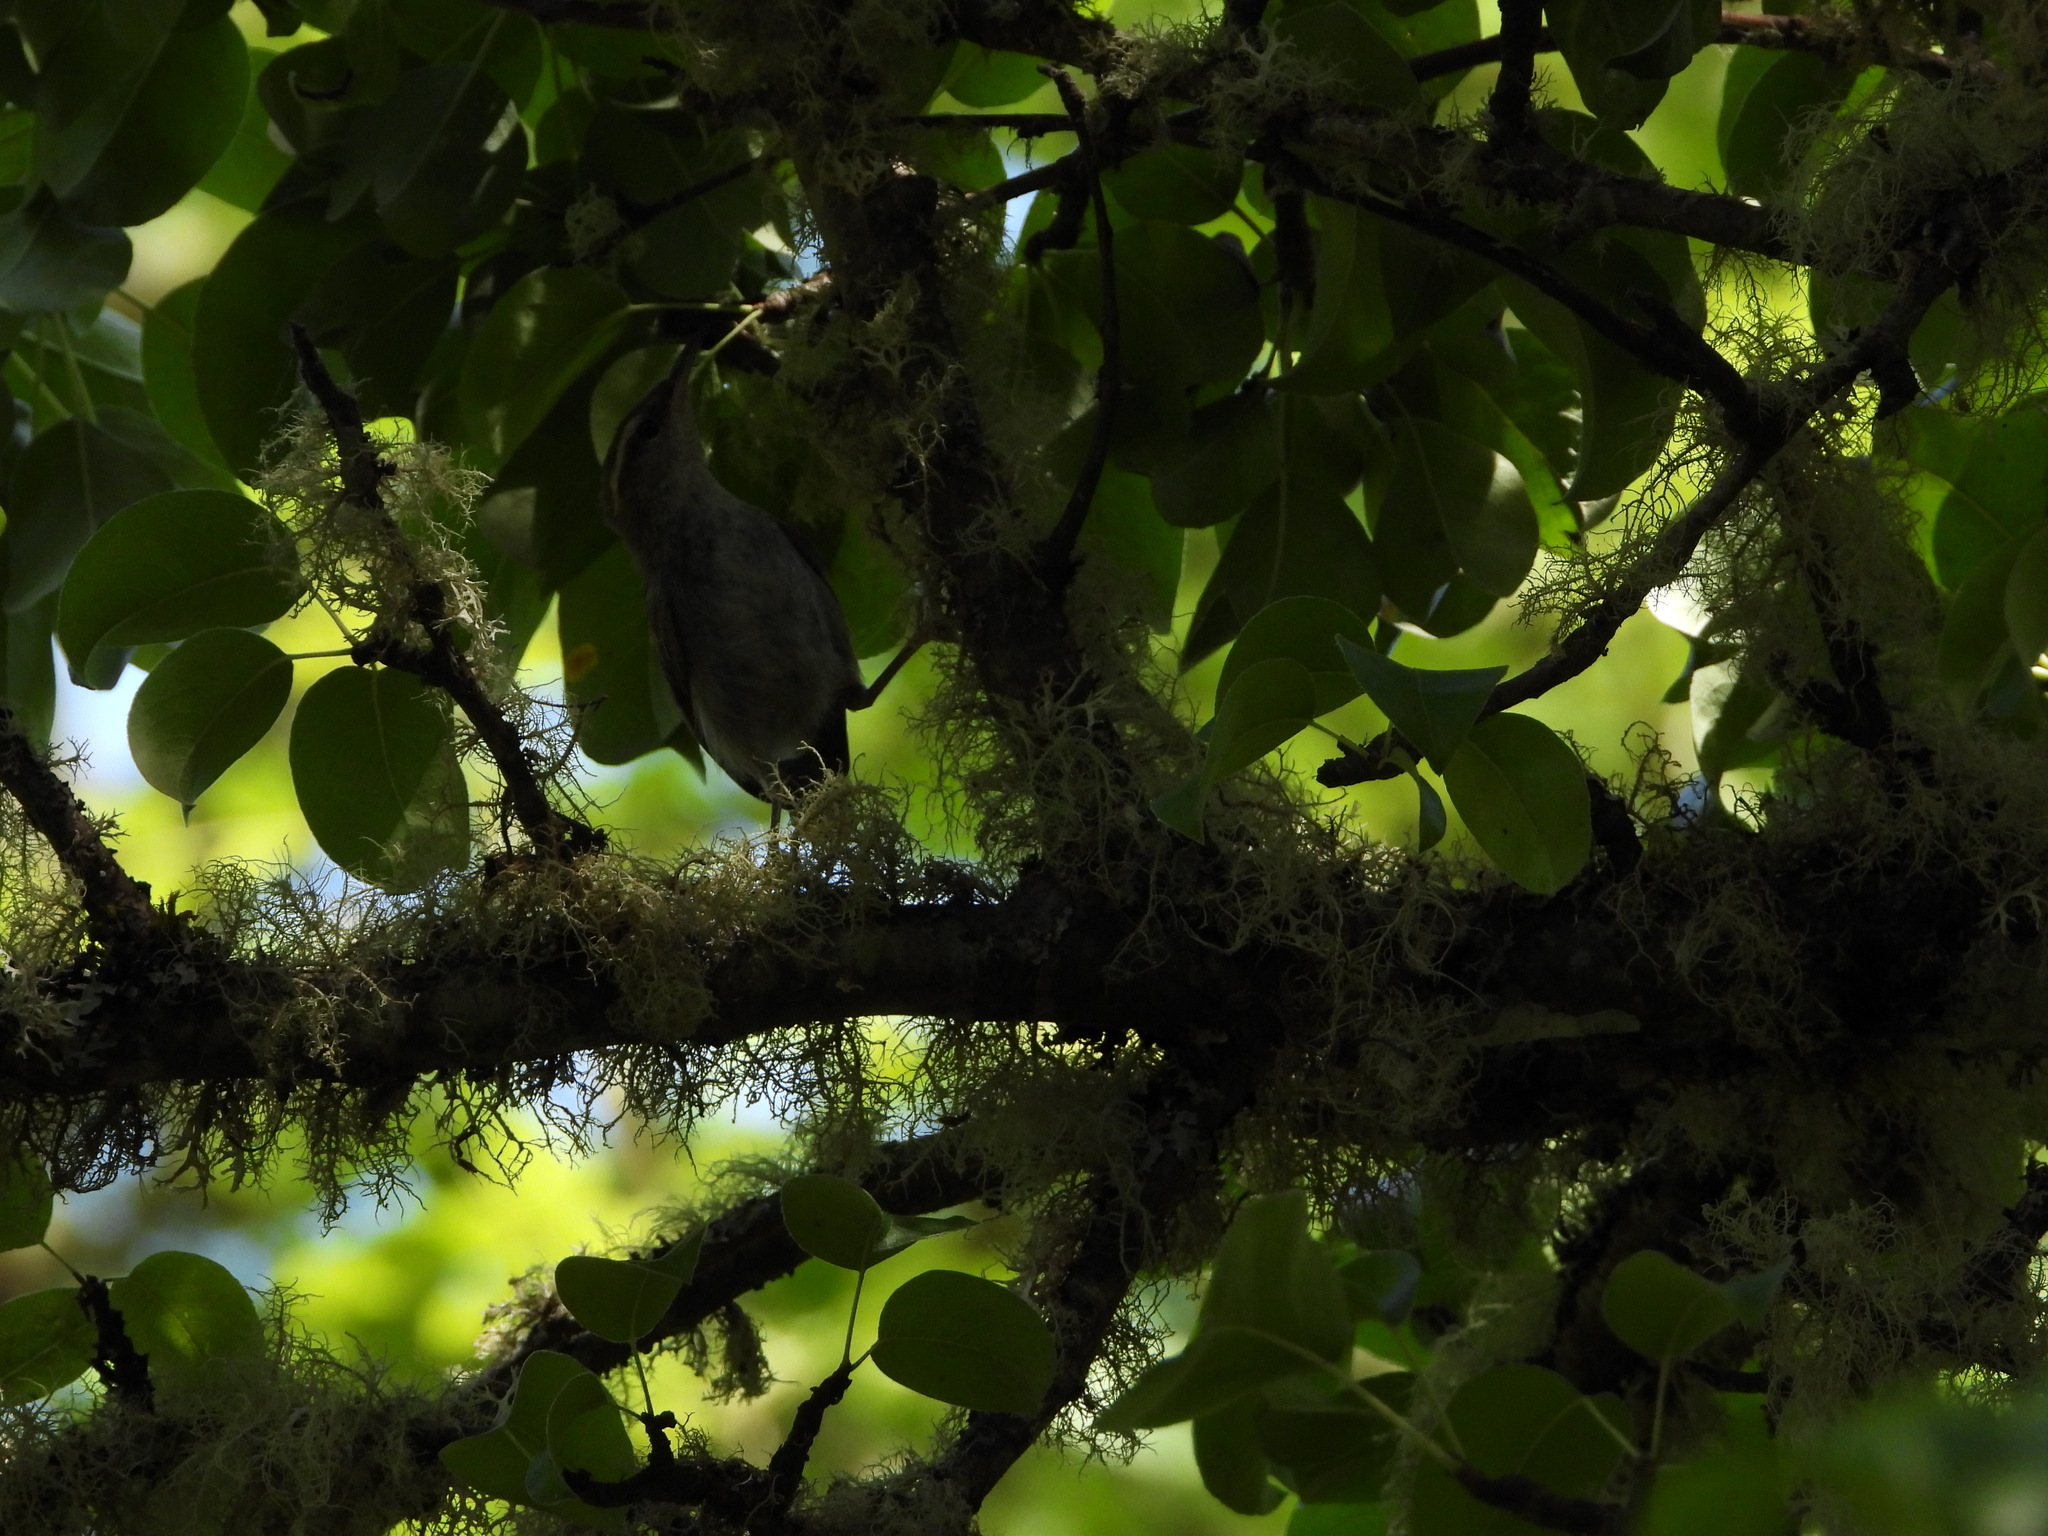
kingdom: Animalia
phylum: Chordata
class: Aves
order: Passeriformes
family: Troglodytidae
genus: Thryomanes
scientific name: Thryomanes bewickii
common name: Bewick's wren
